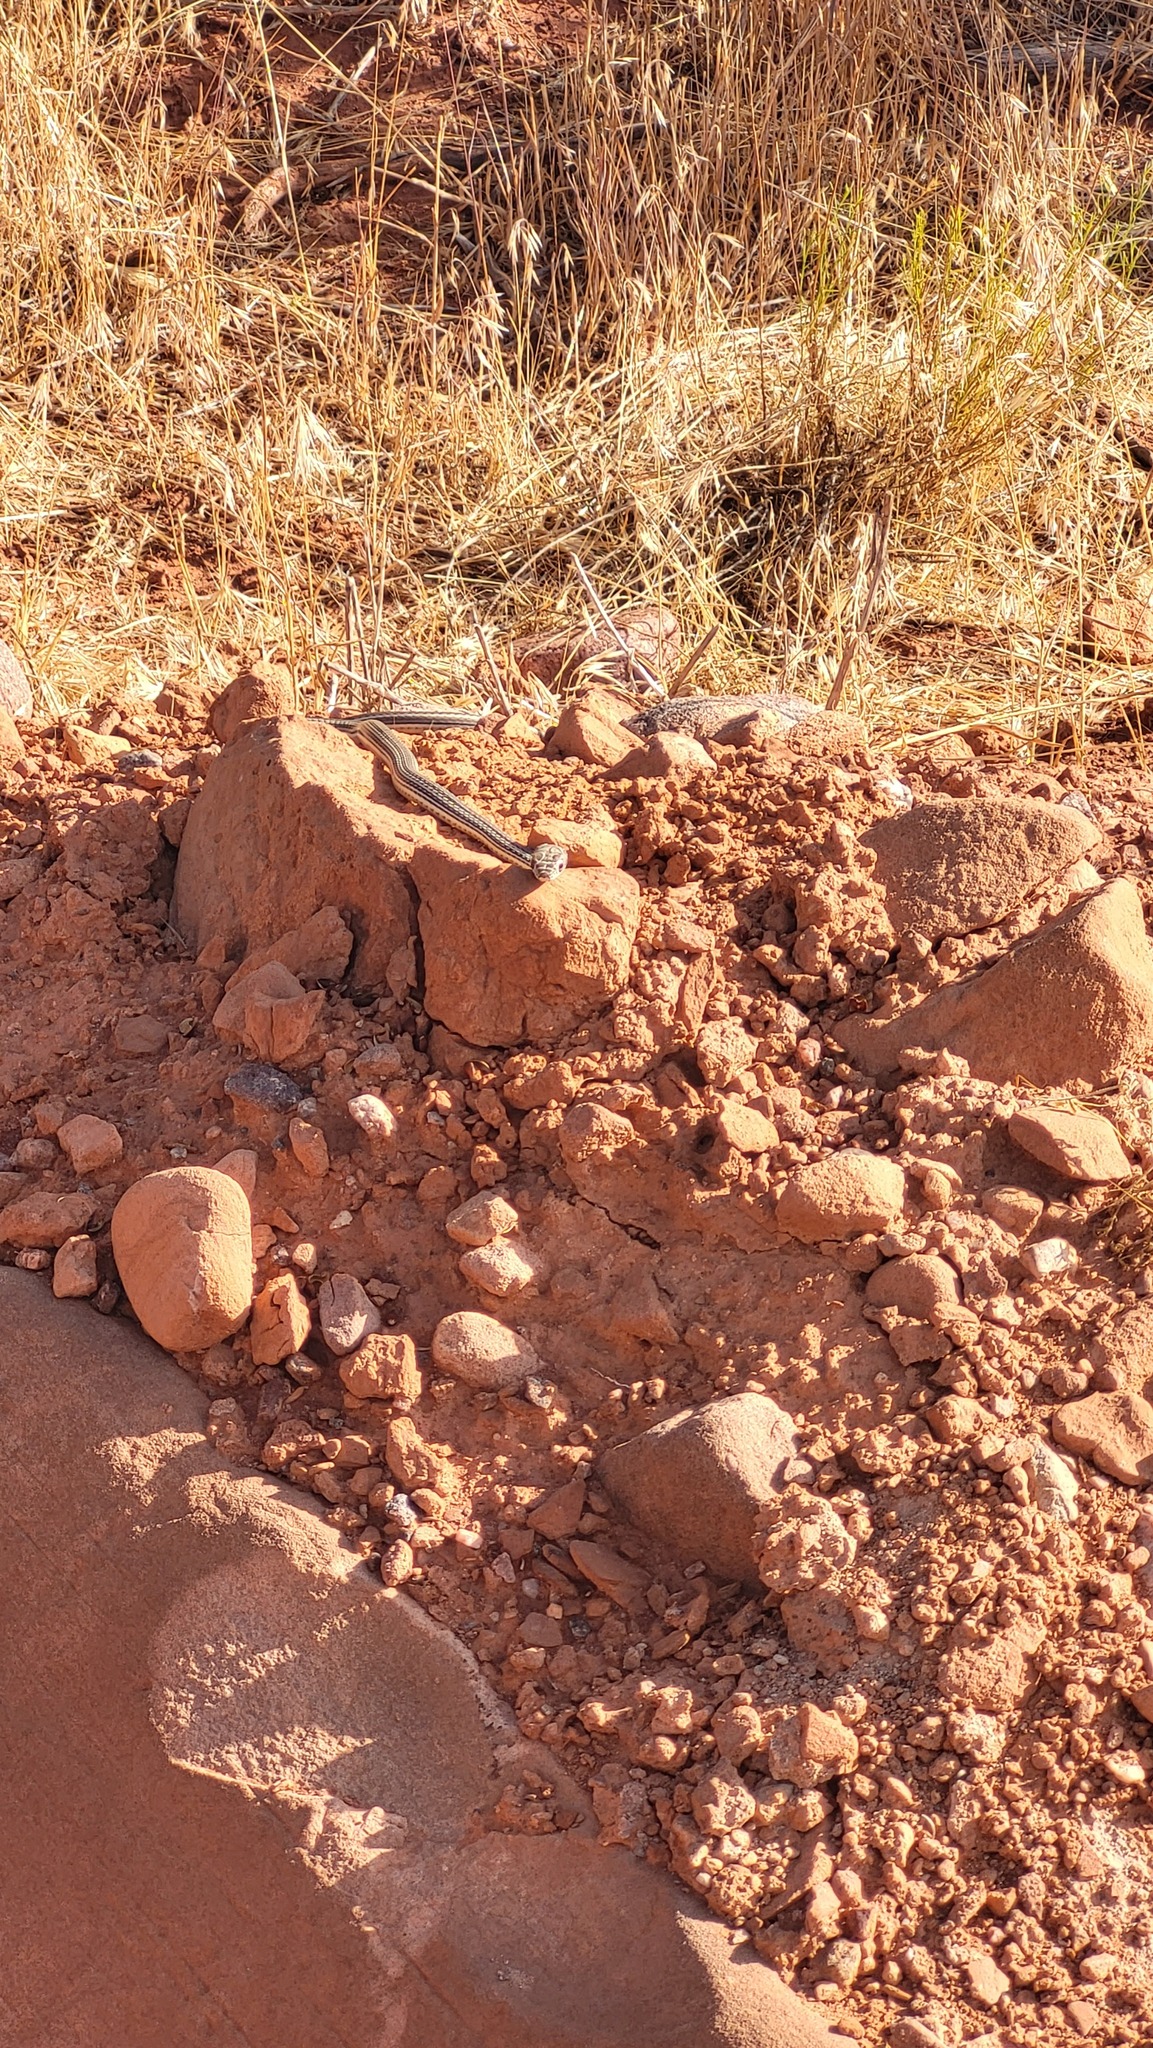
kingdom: Animalia
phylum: Chordata
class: Squamata
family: Colubridae
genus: Masticophis
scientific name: Masticophis taeniatus
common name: Striped whipsnake
